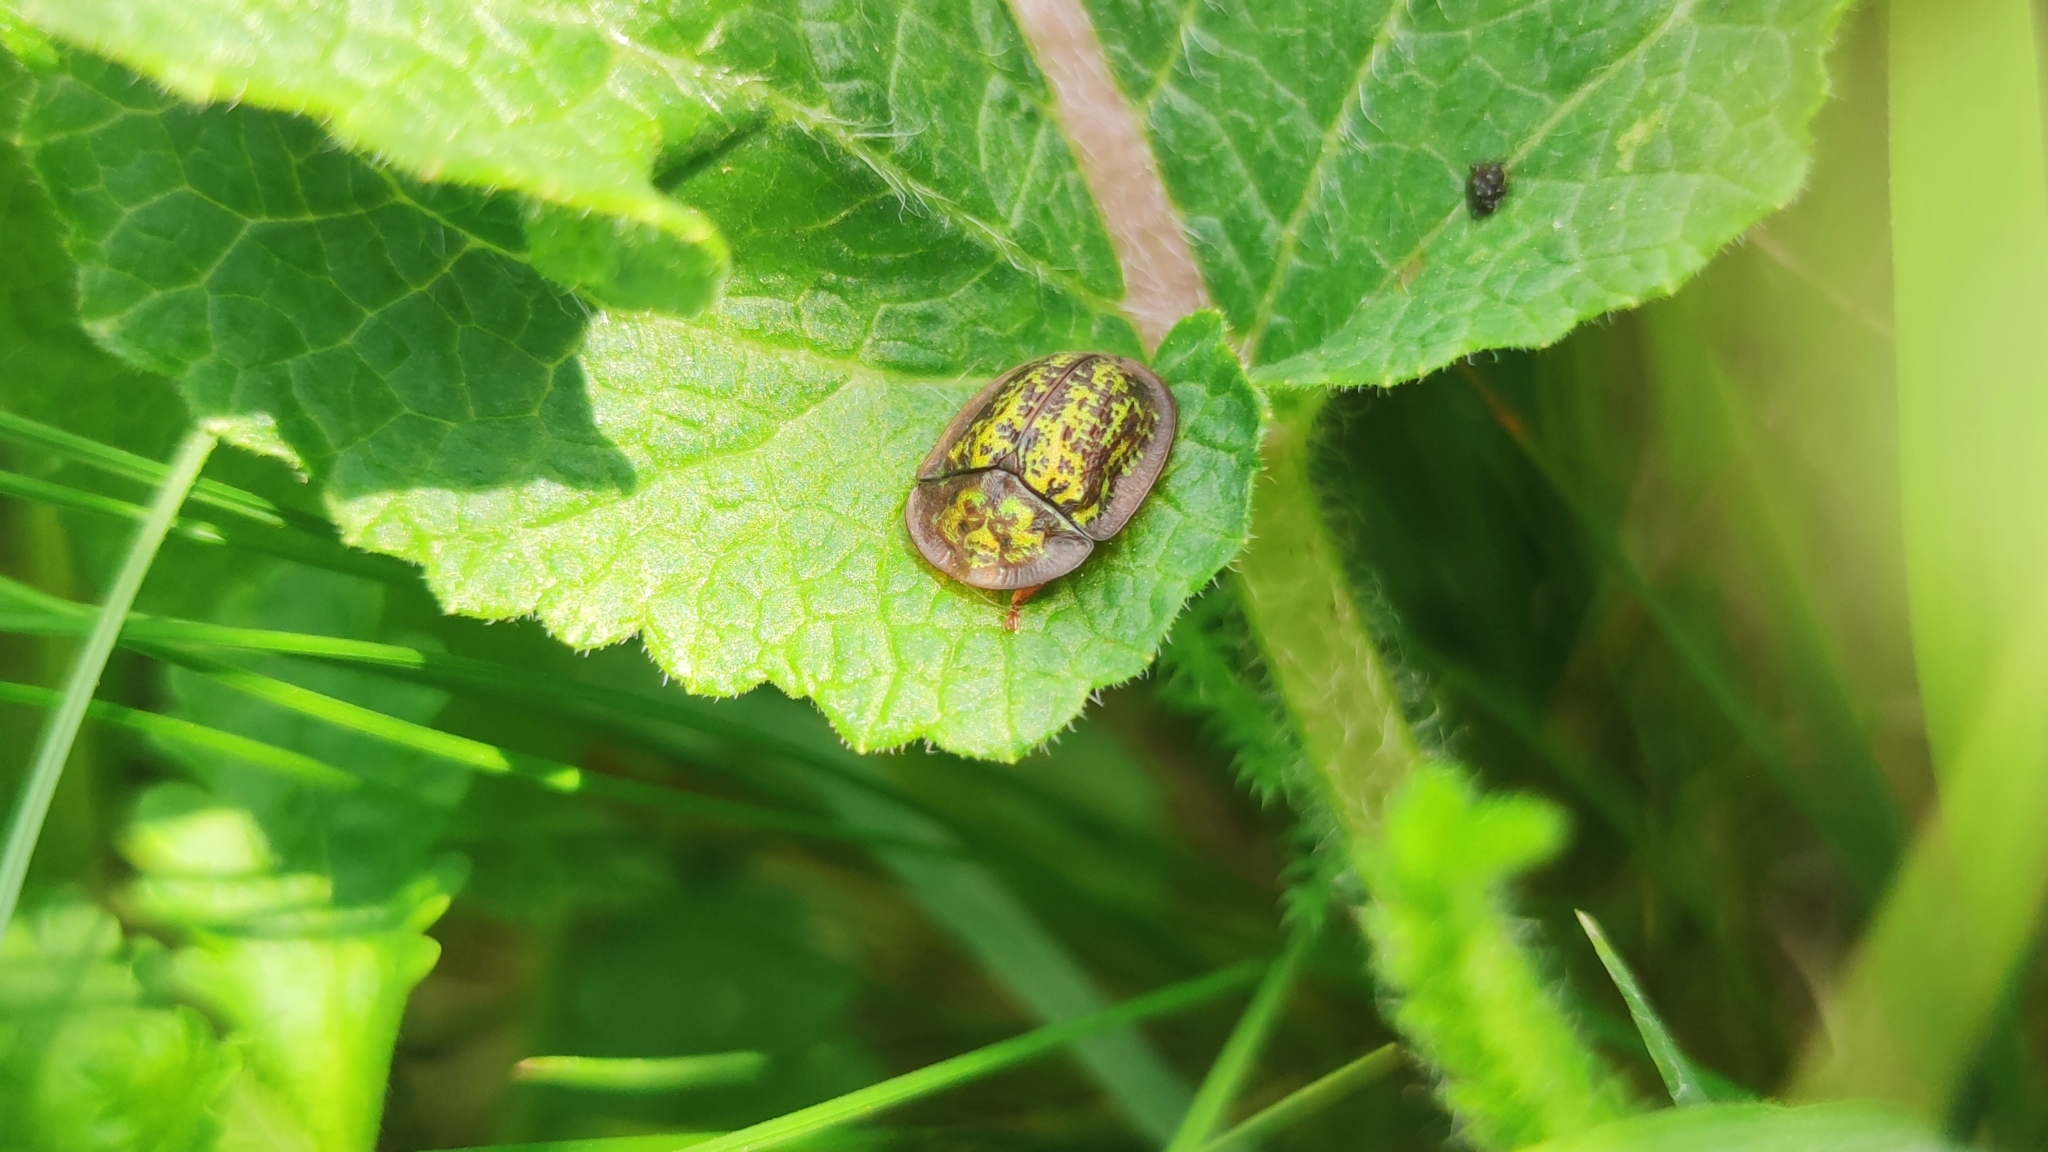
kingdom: Animalia
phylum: Arthropoda
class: Insecta
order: Coleoptera
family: Chrysomelidae
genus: Cassida
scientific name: Cassida canaliculata
